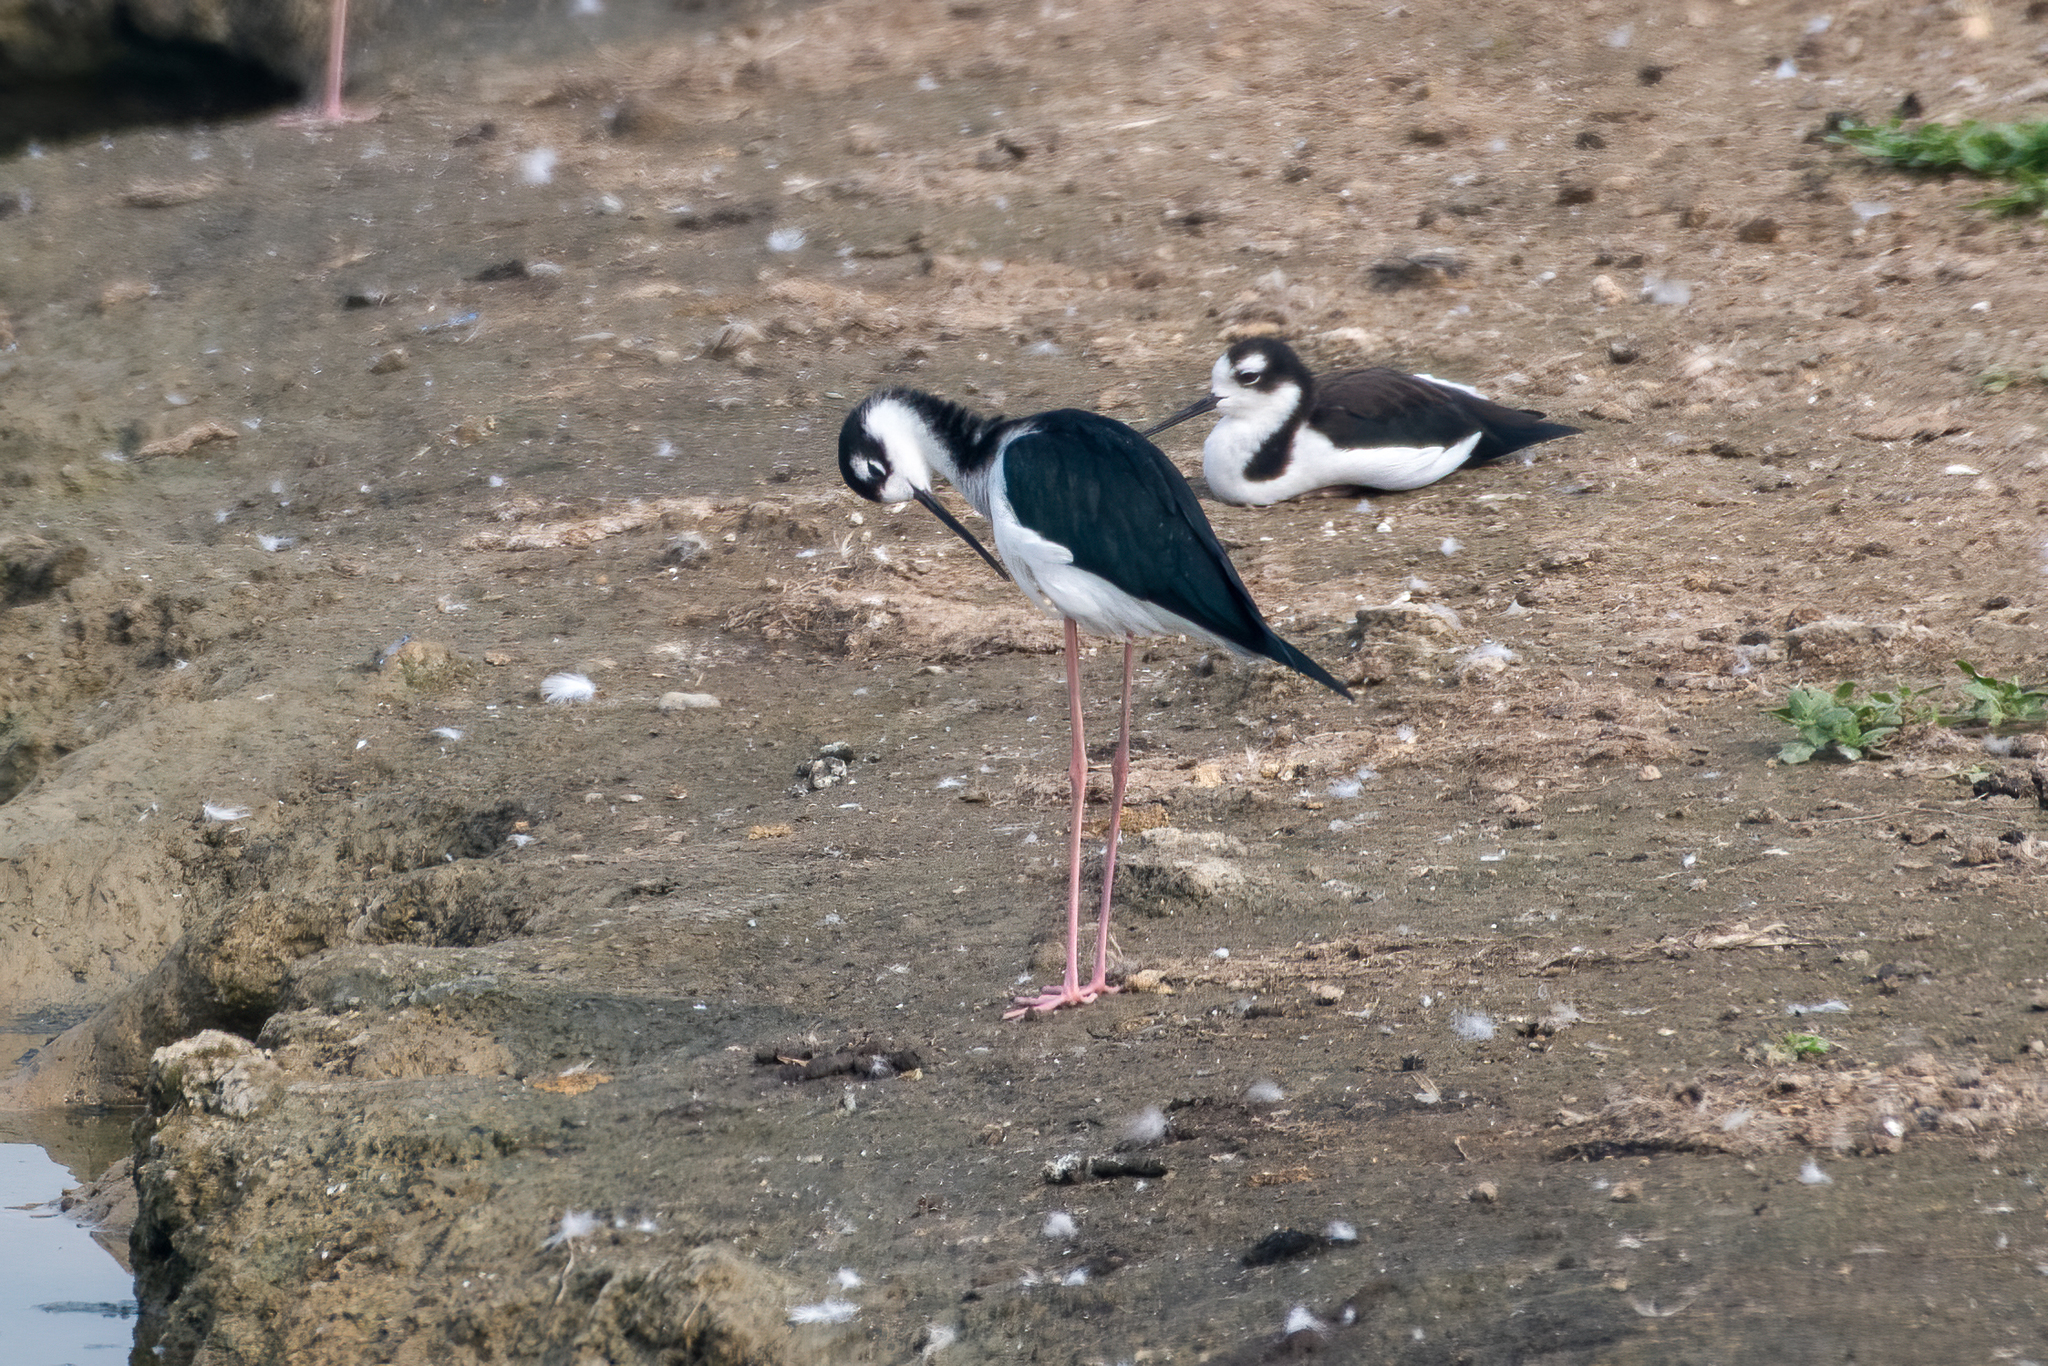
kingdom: Animalia
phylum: Chordata
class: Aves
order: Charadriiformes
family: Recurvirostridae
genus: Himantopus
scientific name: Himantopus mexicanus
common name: Black-necked stilt
